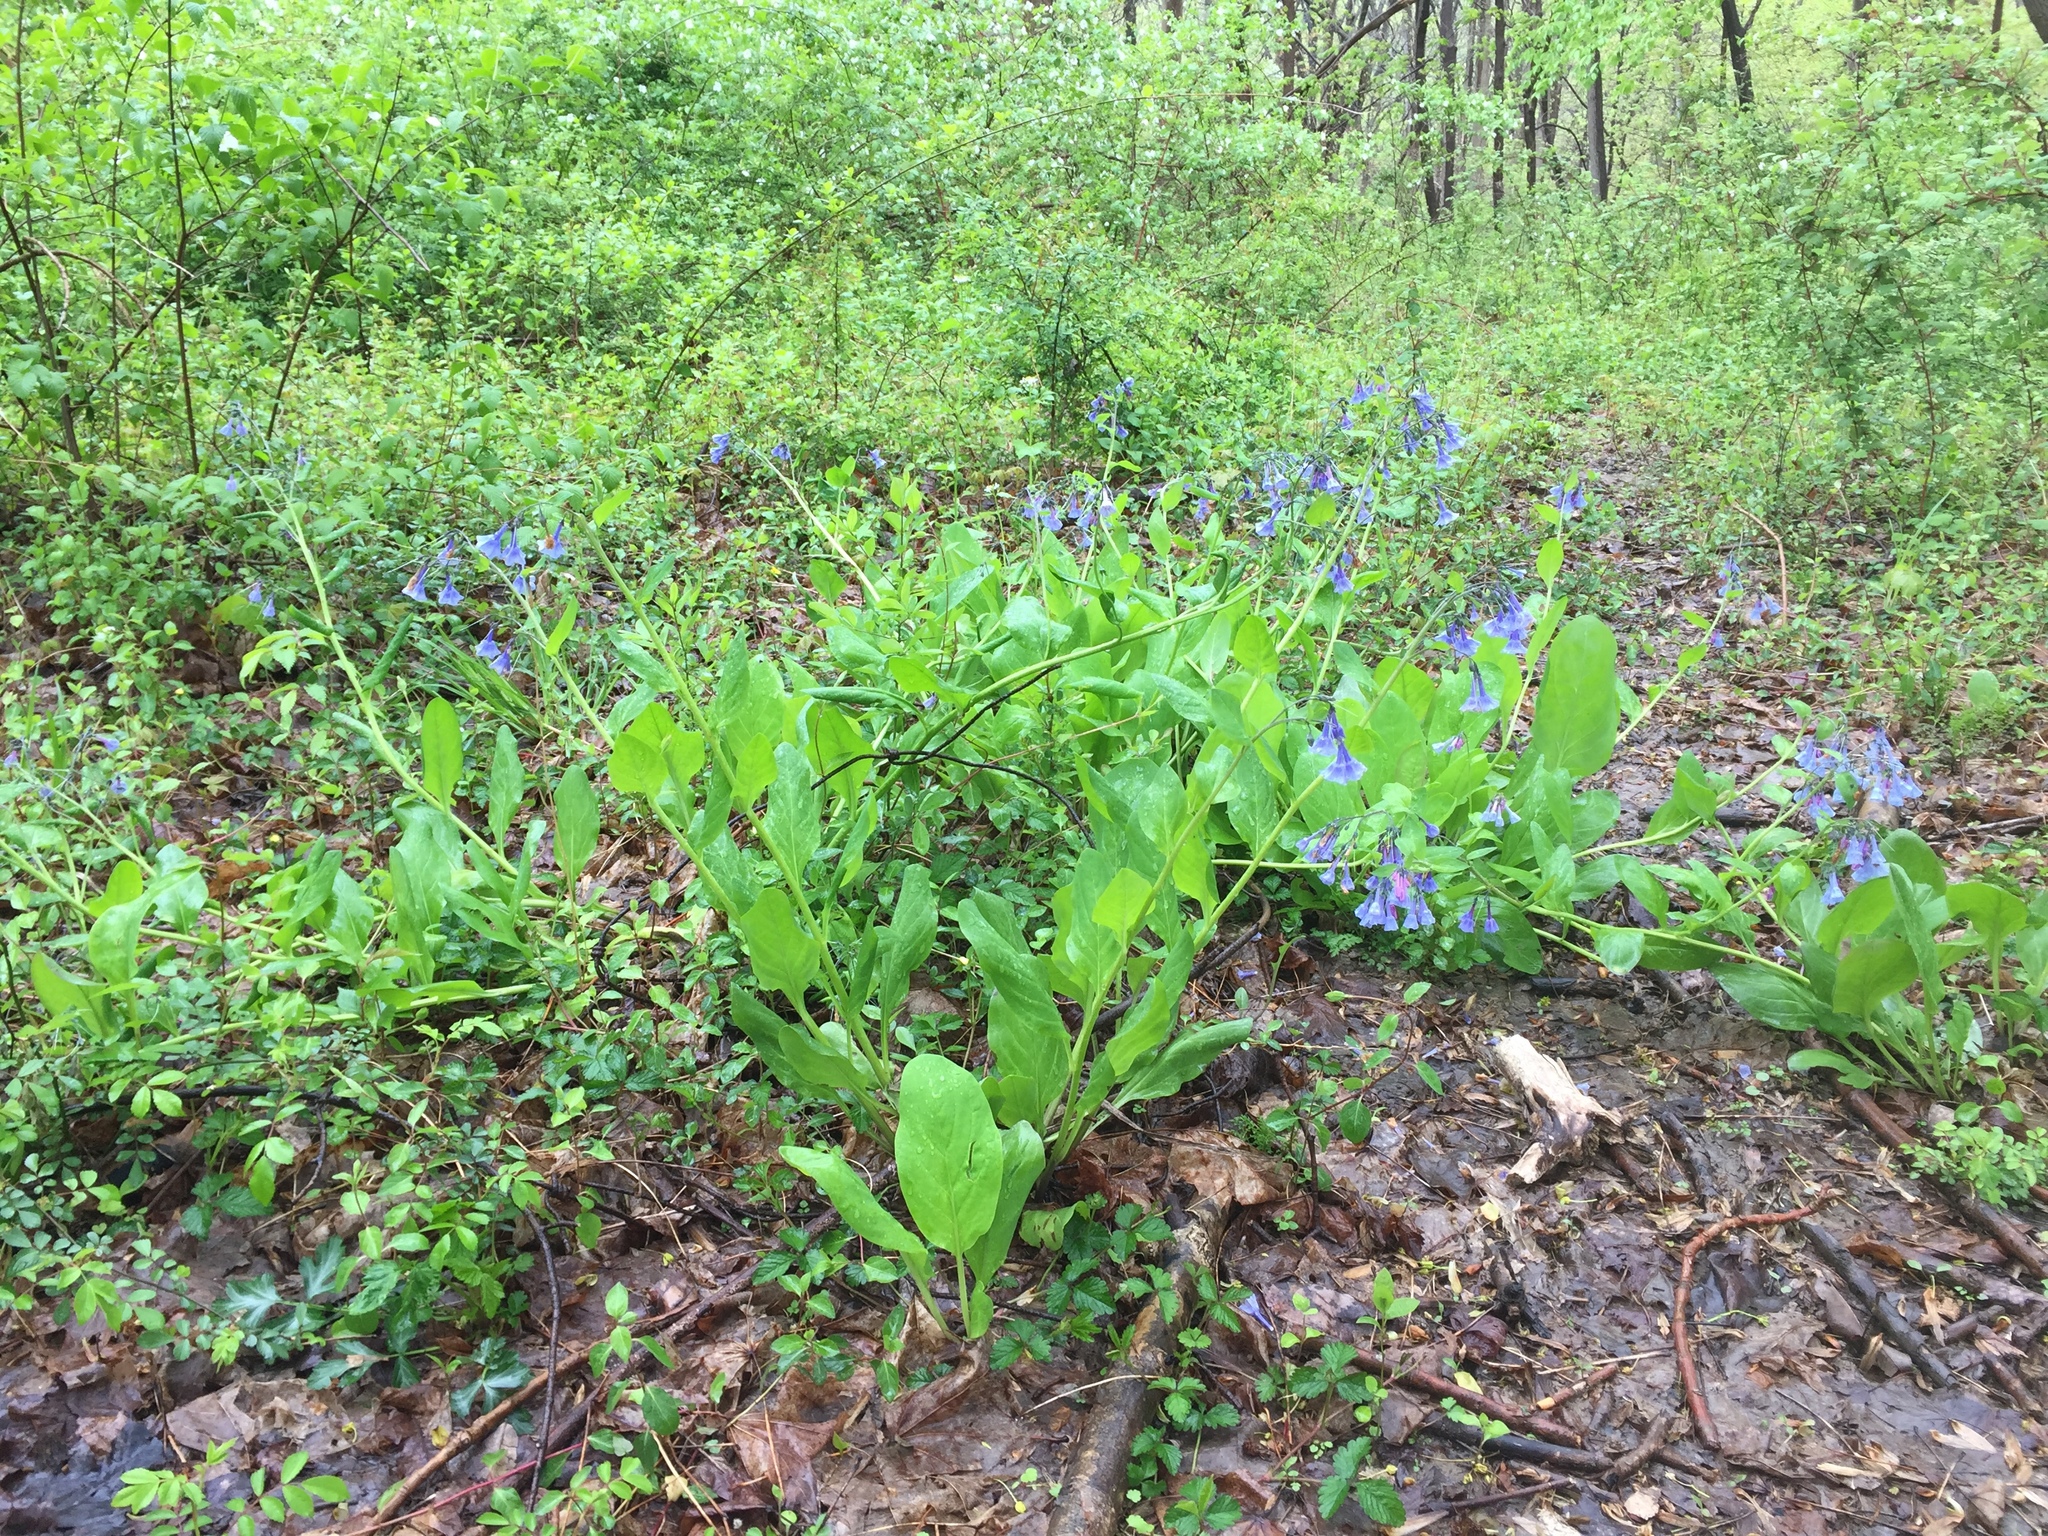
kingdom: Plantae
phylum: Tracheophyta
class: Magnoliopsida
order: Boraginales
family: Boraginaceae
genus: Mertensia
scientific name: Mertensia virginica
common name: Virginia bluebells
